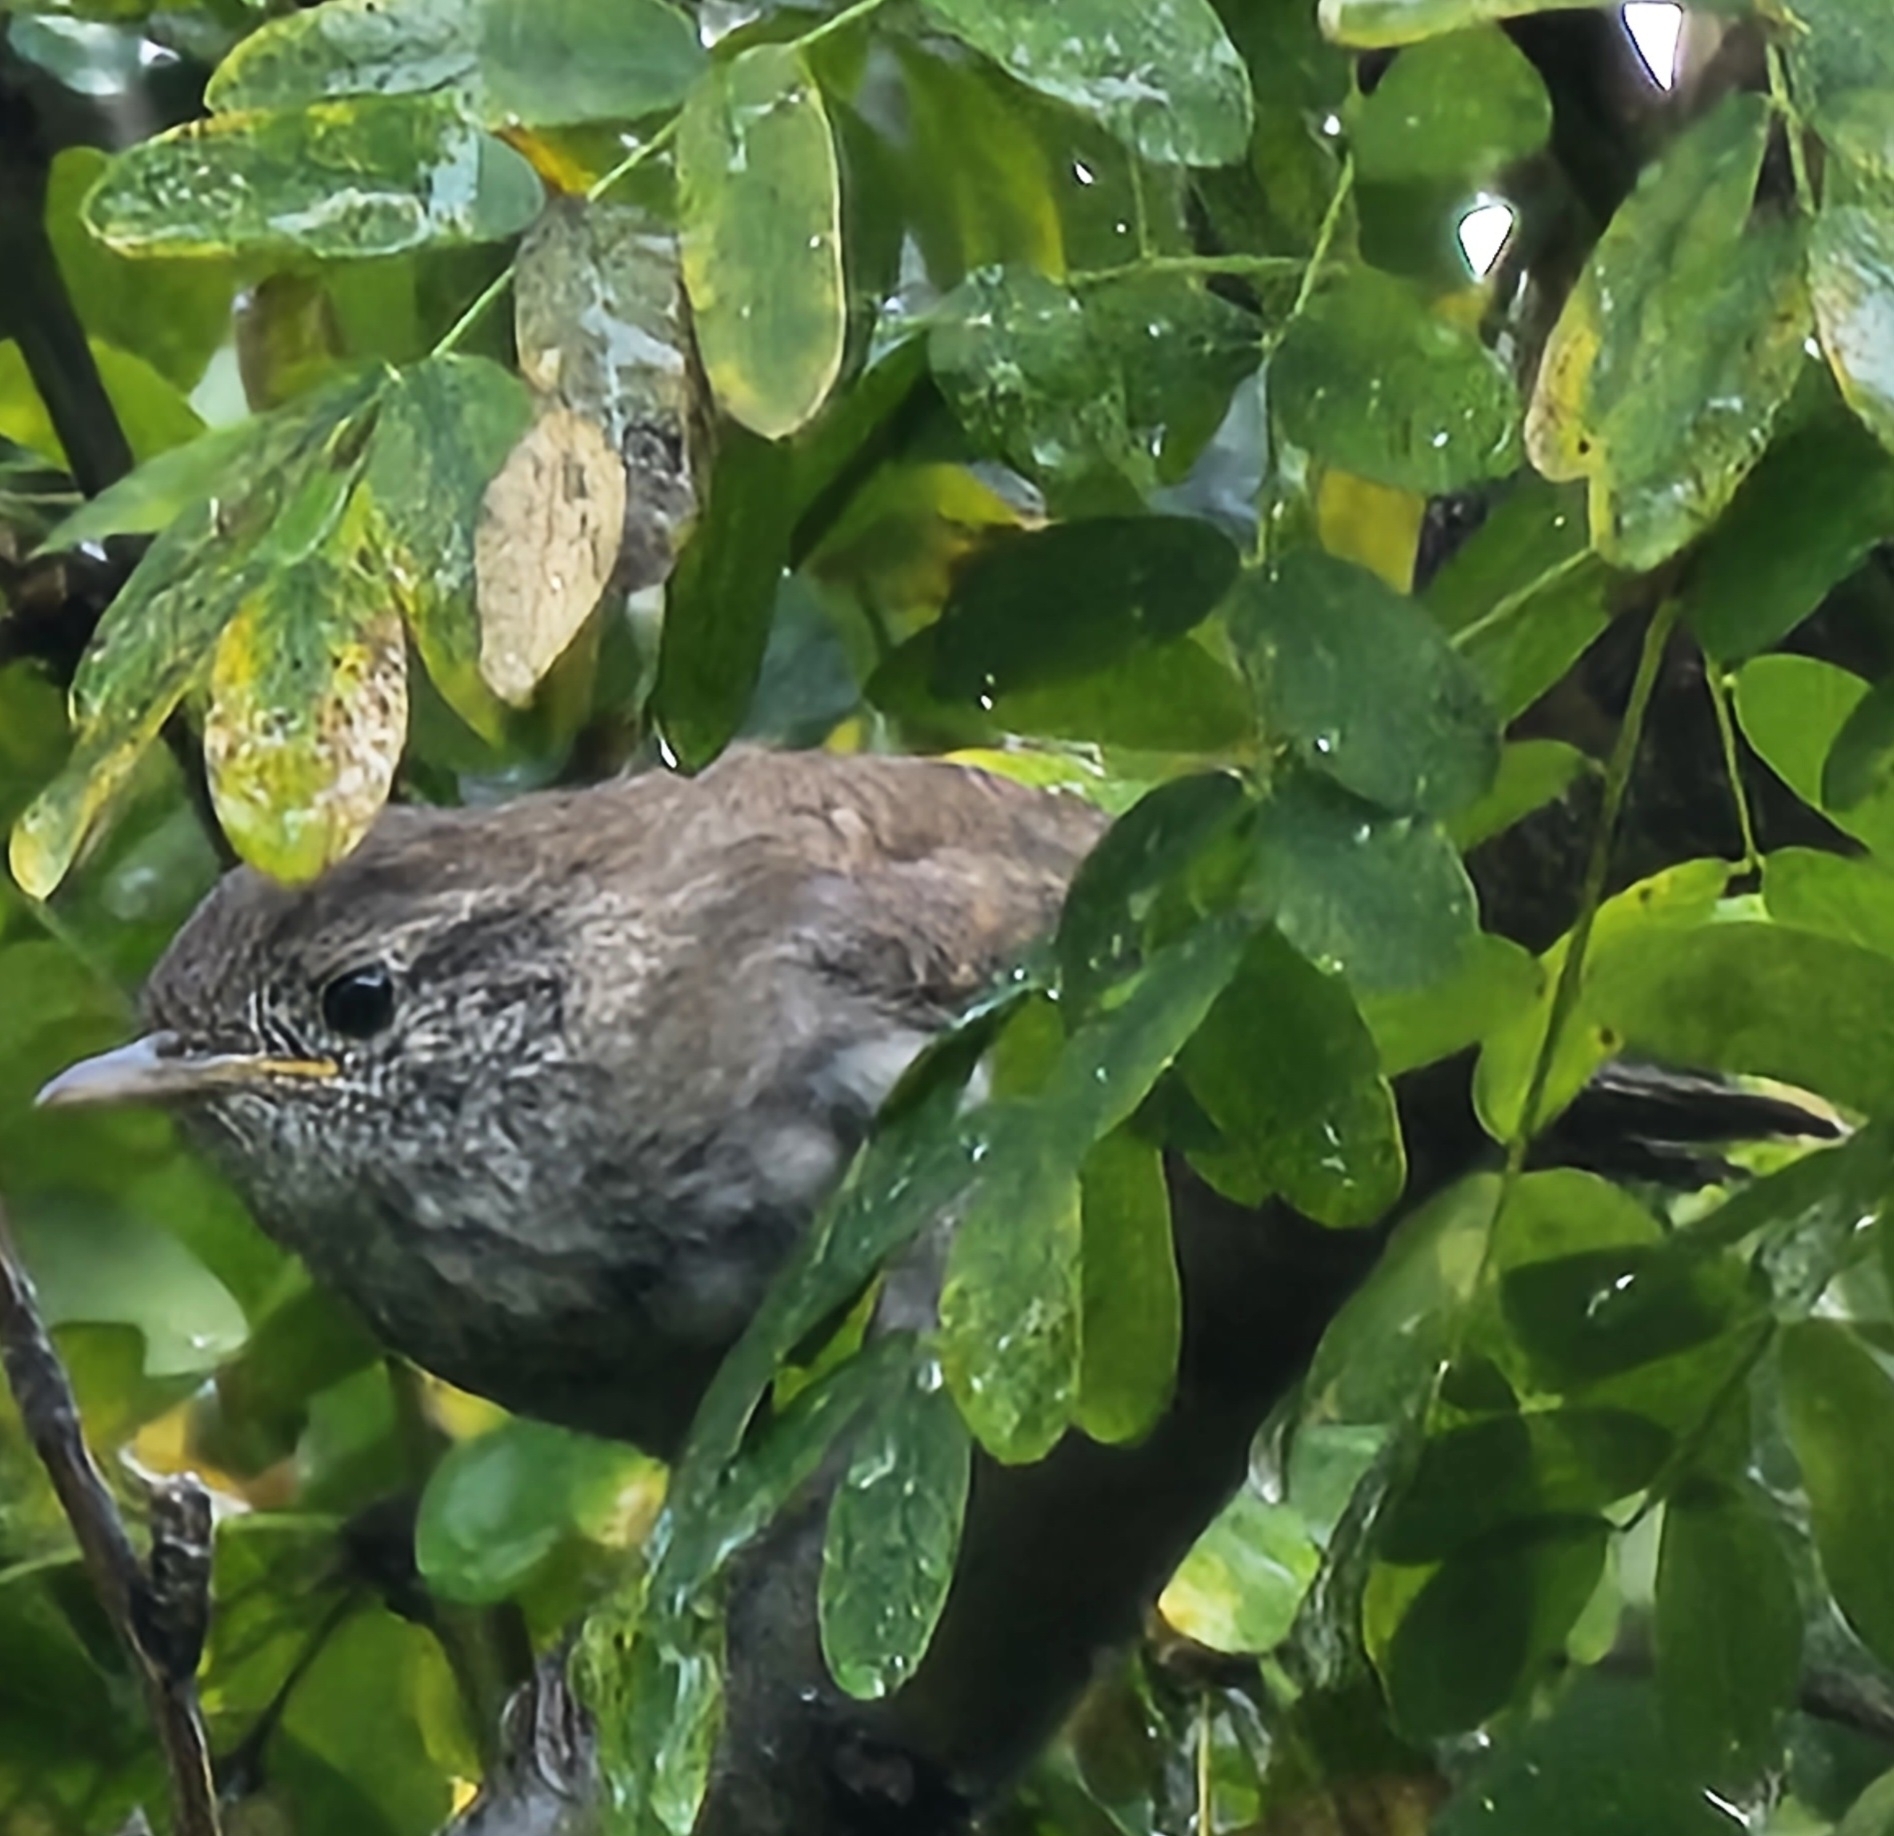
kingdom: Animalia
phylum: Chordata
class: Aves
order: Passeriformes
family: Troglodytidae
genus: Troglodytes
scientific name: Troglodytes aedon
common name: House wren
